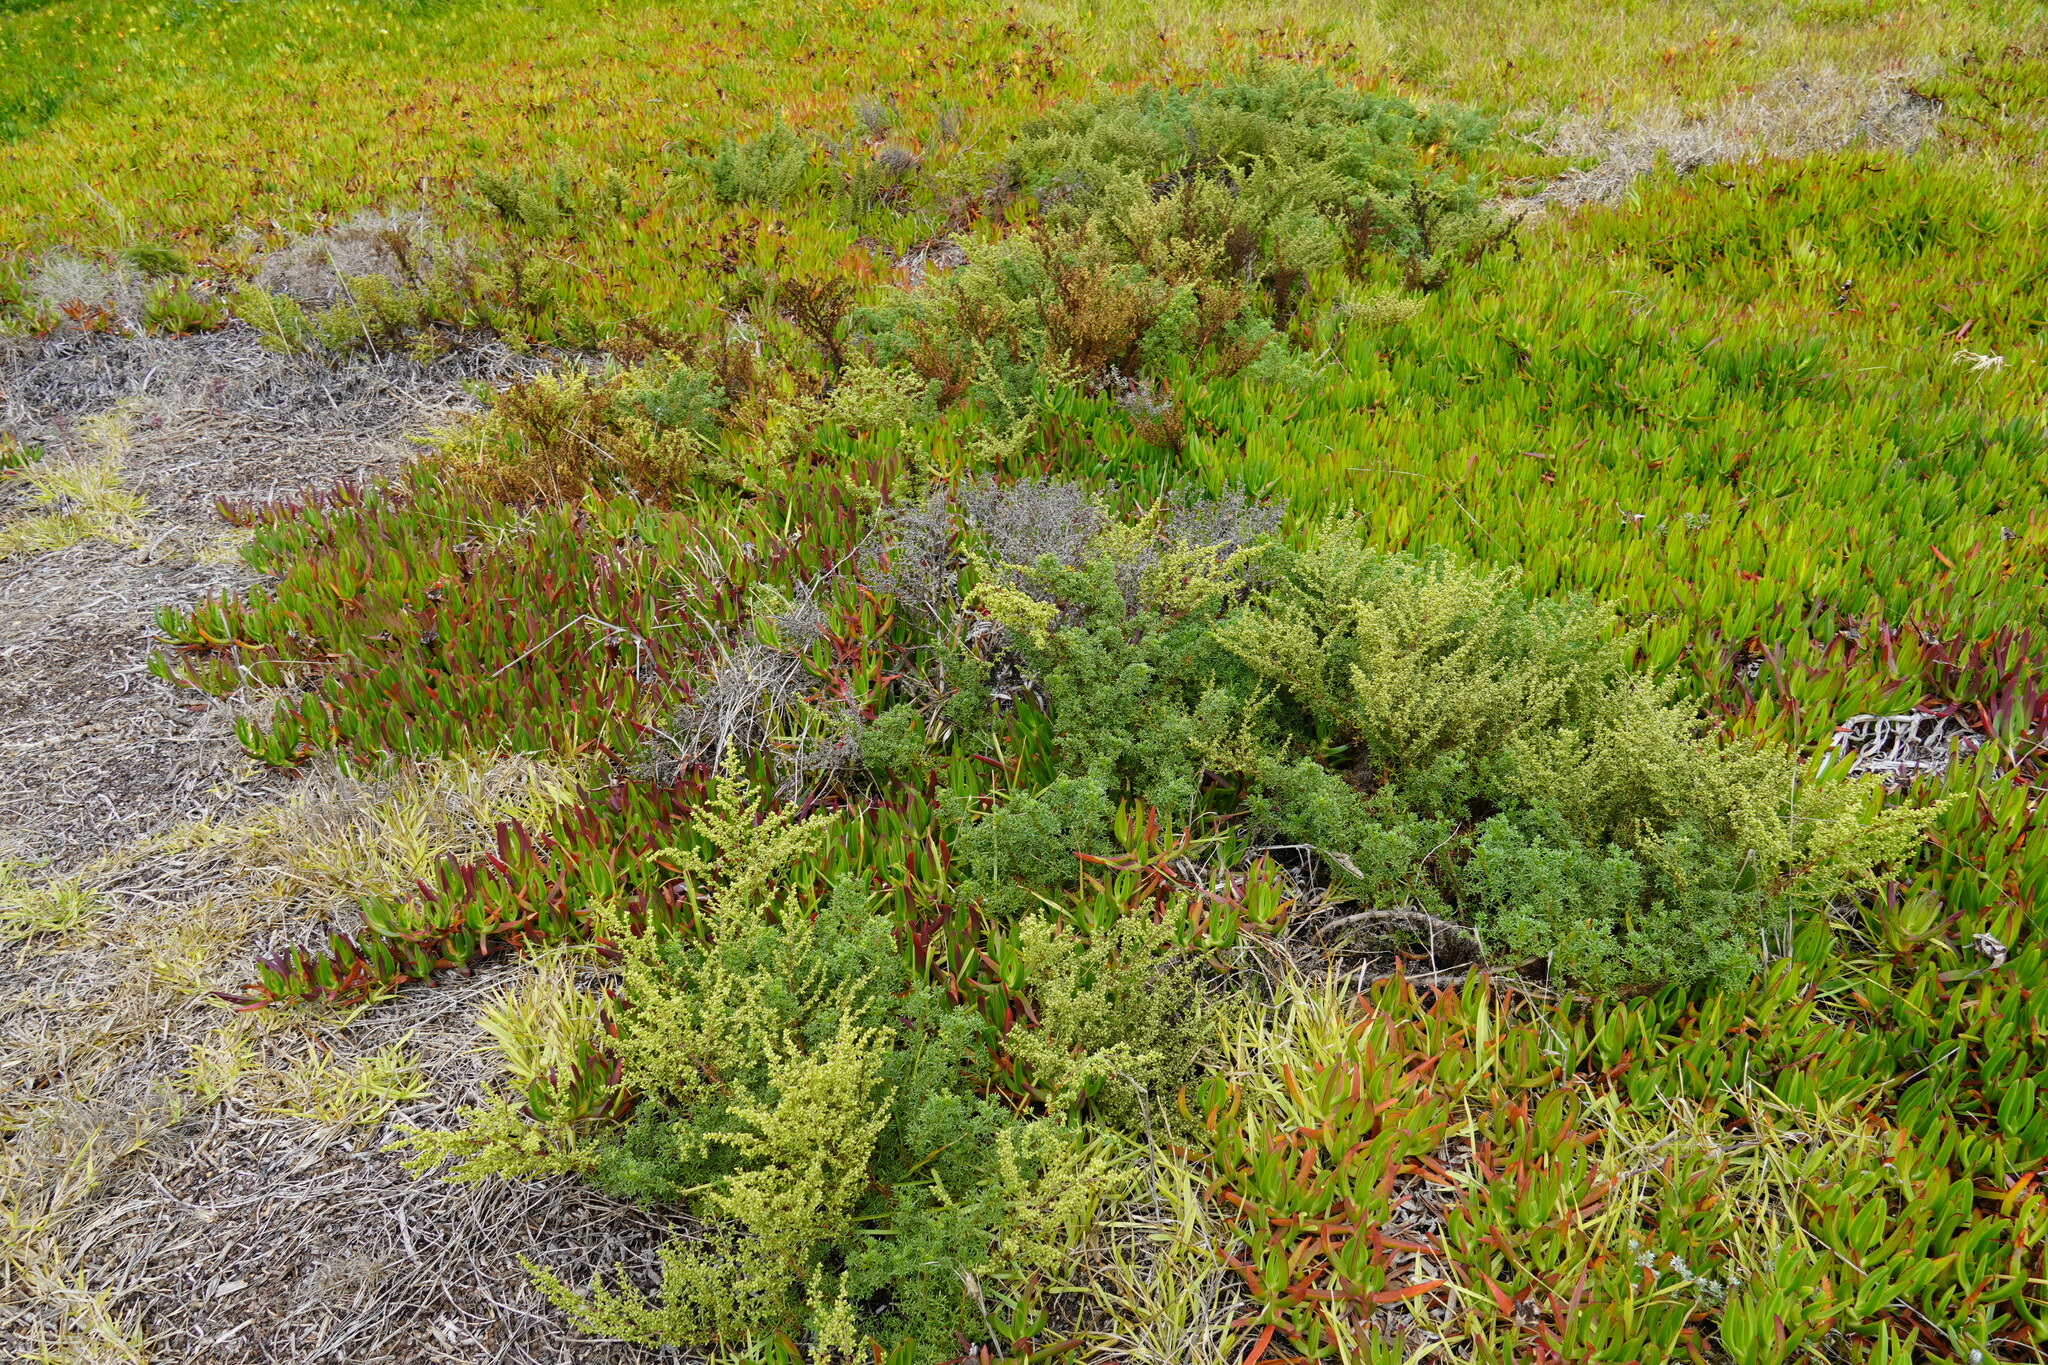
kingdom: Plantae
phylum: Tracheophyta
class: Magnoliopsida
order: Asterales
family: Asteraceae
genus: Artemisia
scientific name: Artemisia crithmifolia
